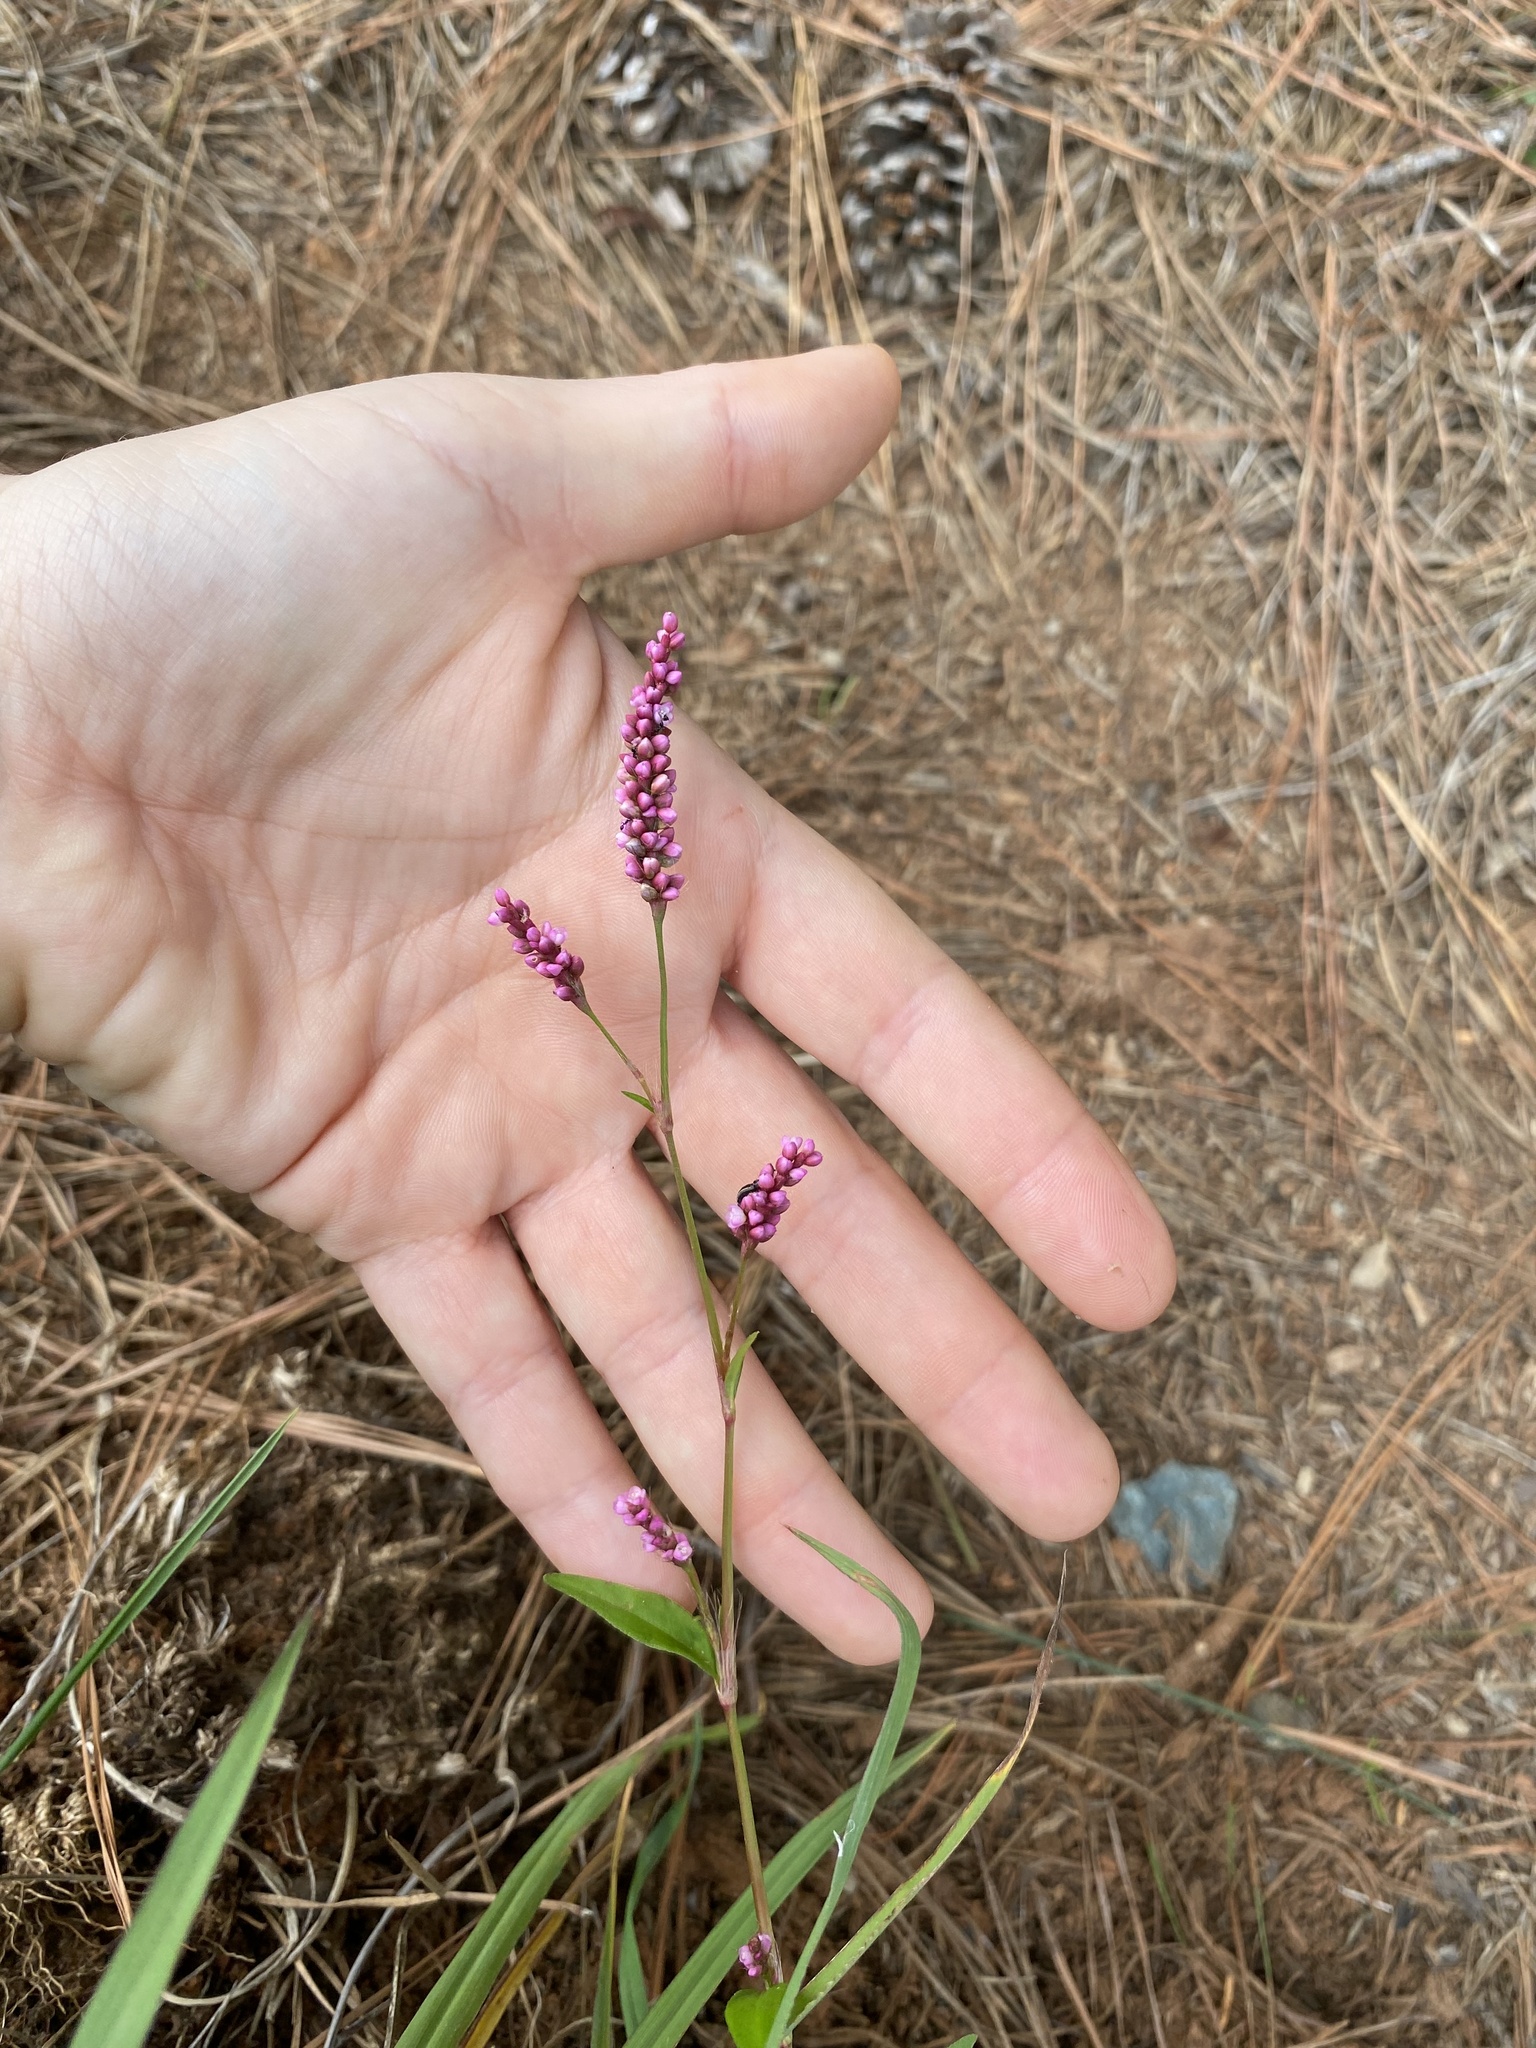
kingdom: Plantae
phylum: Tracheophyta
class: Magnoliopsida
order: Caryophyllales
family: Polygonaceae
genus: Persicaria
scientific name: Persicaria longiseta
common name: Bristly lady's-thumb
